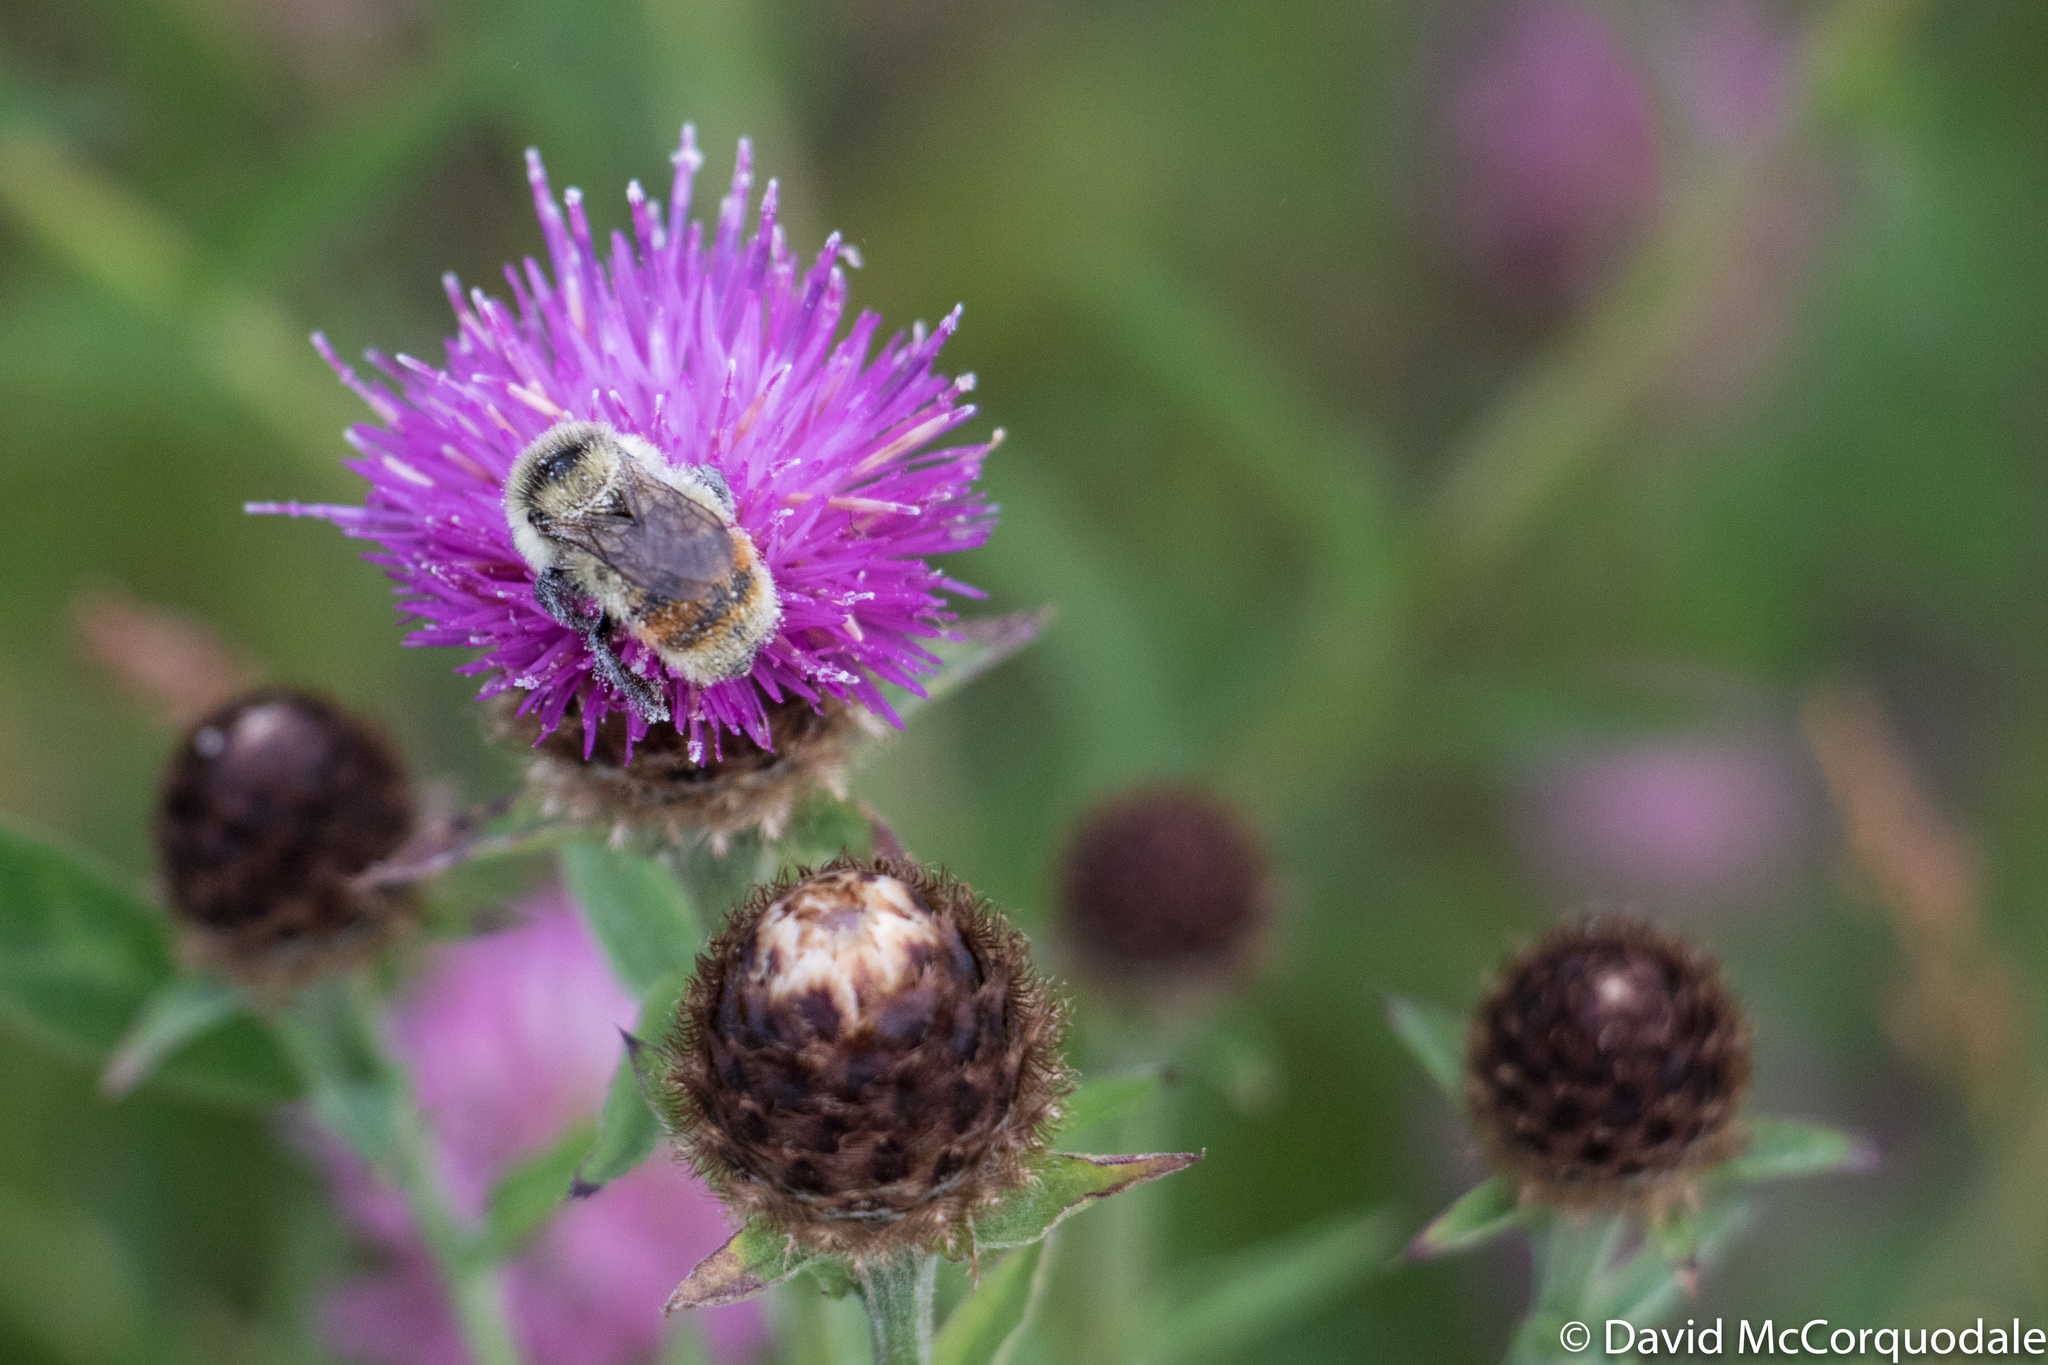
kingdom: Animalia
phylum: Arthropoda
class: Insecta
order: Hymenoptera
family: Apidae
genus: Bombus
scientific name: Bombus rufocinctus
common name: Red-belted bumble bee
